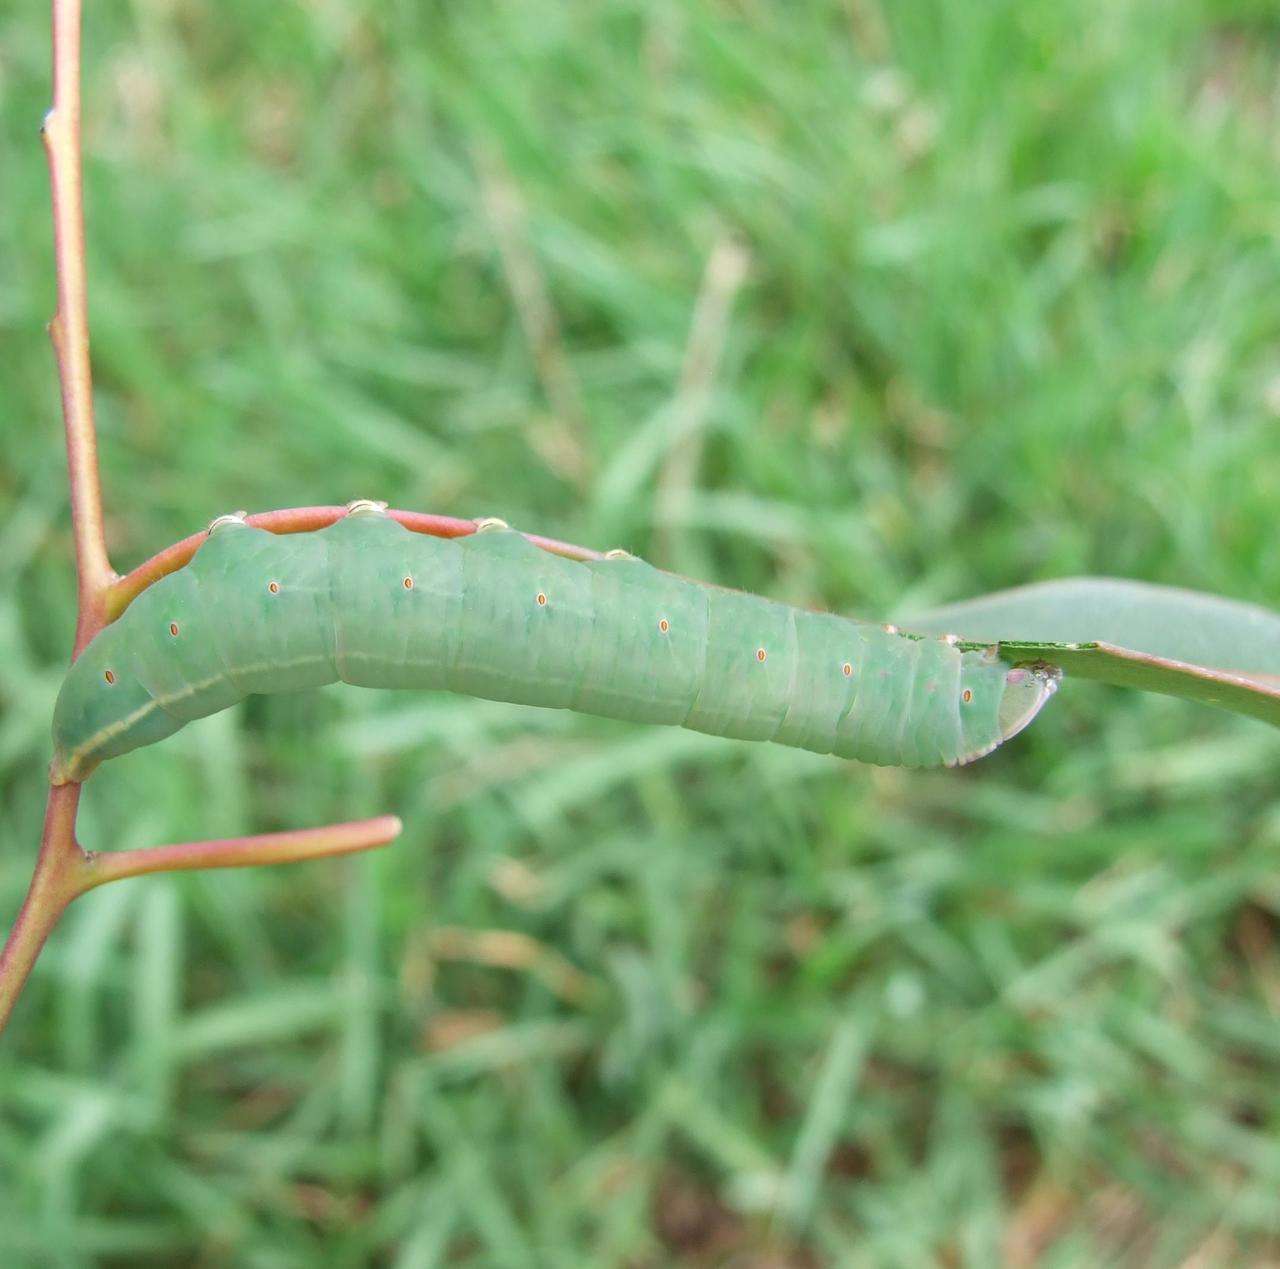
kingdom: Animalia
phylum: Arthropoda
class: Insecta
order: Lepidoptera
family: Notodontidae
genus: Sorama
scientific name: Sorama bicolor
